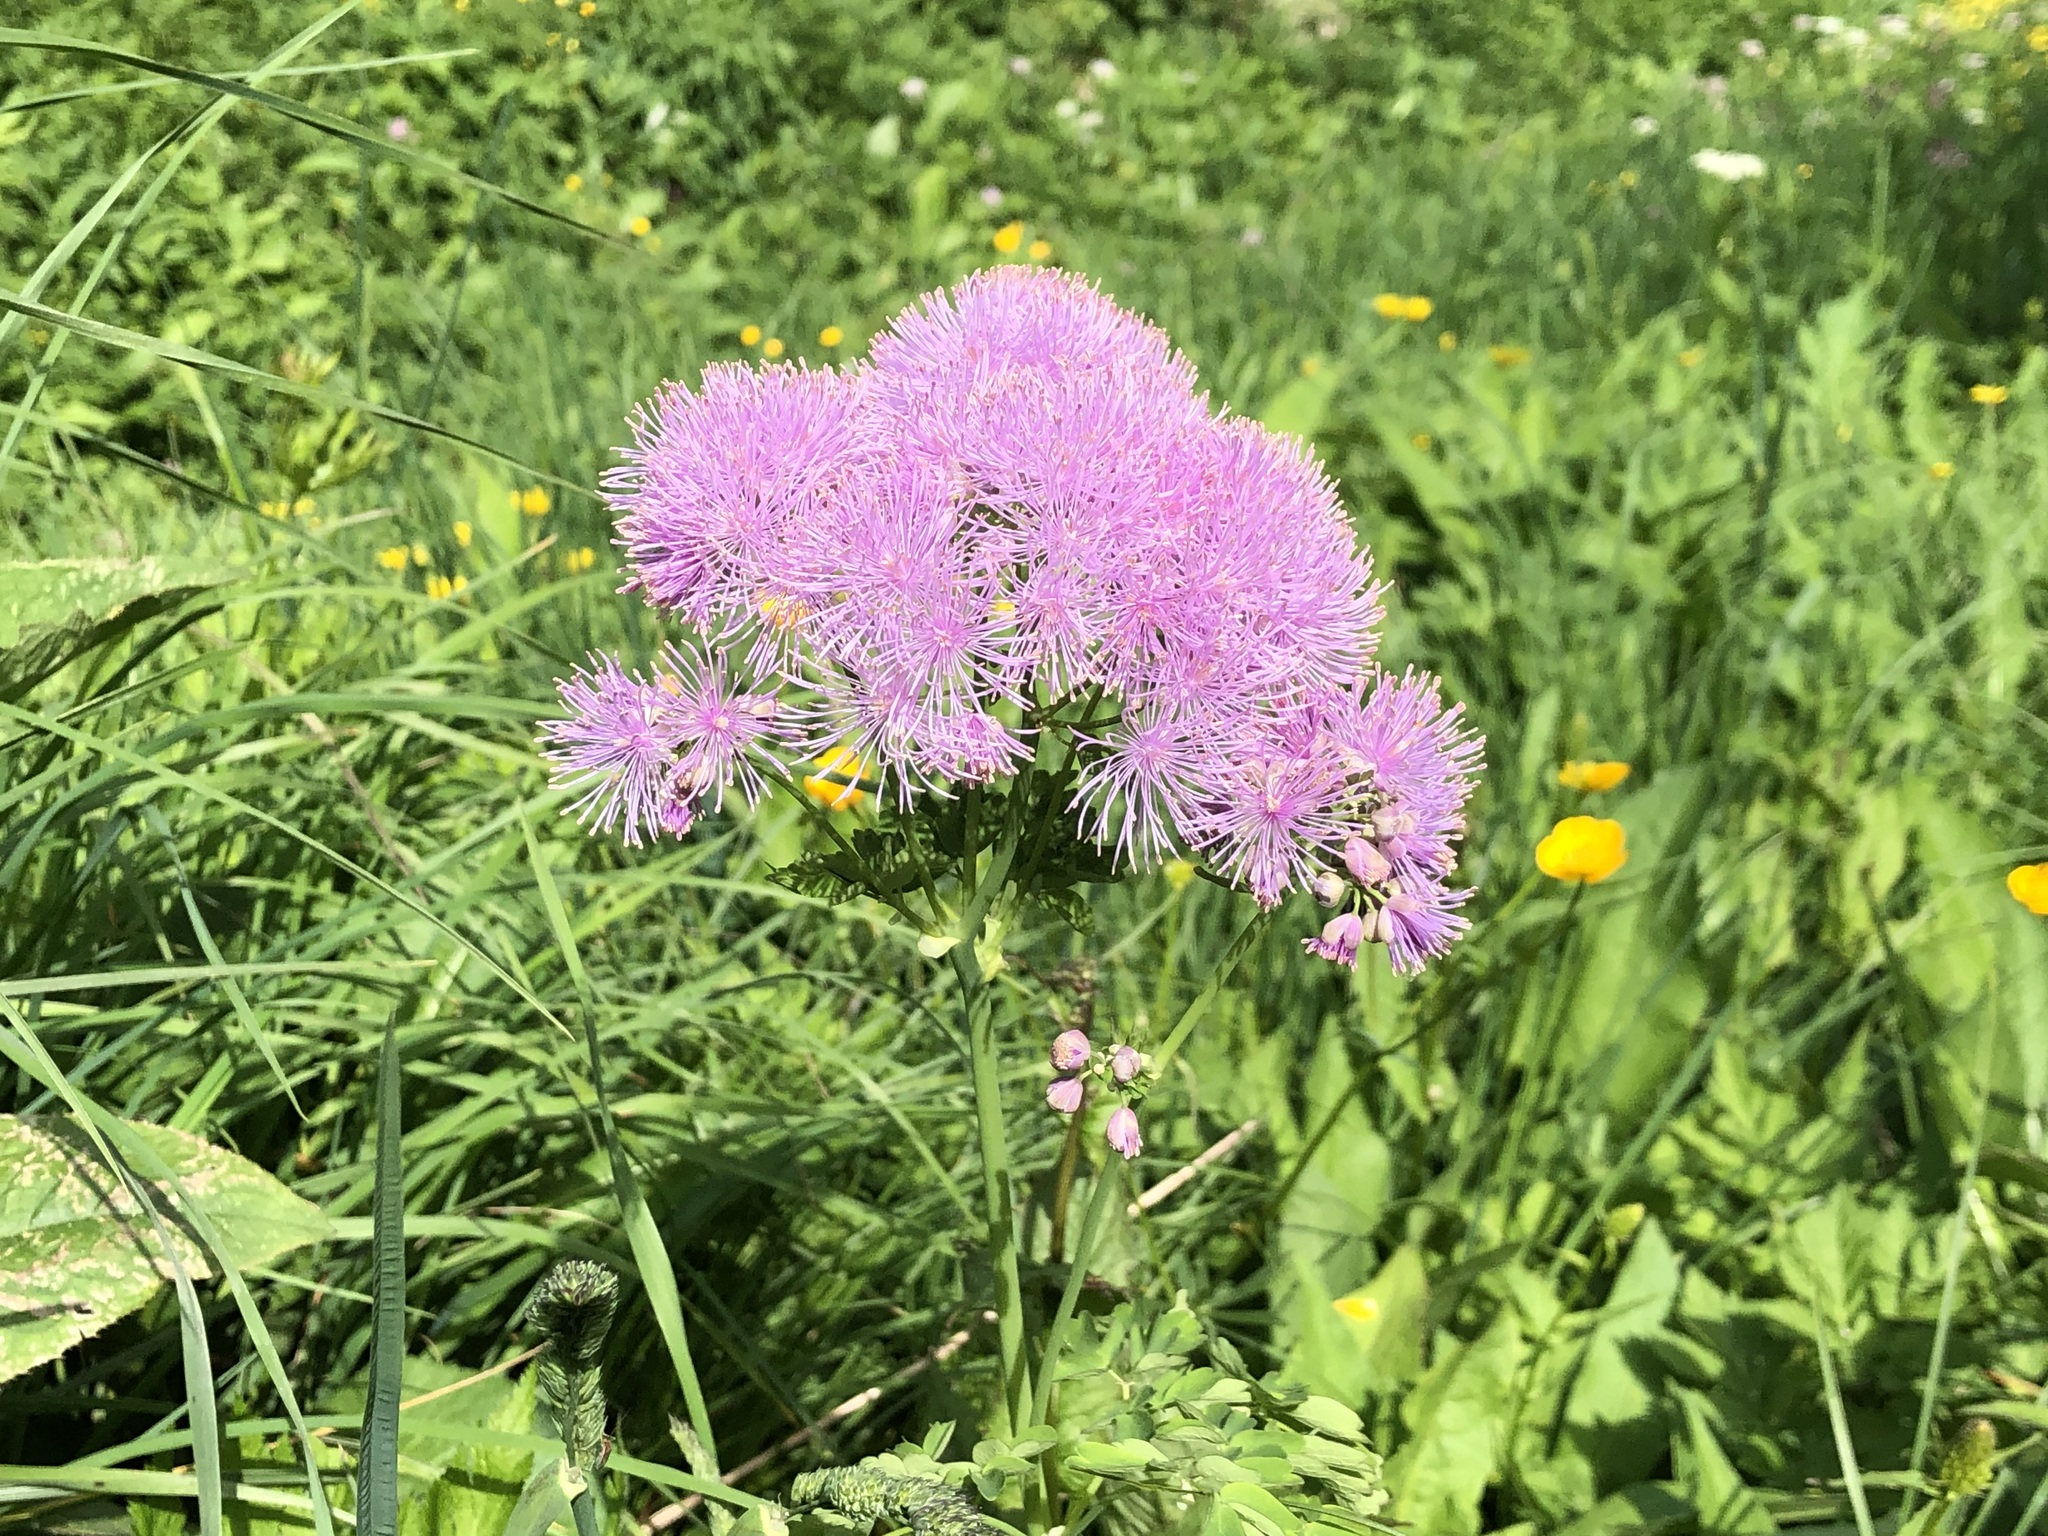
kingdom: Plantae
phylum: Tracheophyta
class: Magnoliopsida
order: Ranunculales
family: Ranunculaceae
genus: Thalictrum
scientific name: Thalictrum aquilegiifolium
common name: French meadow-rue
